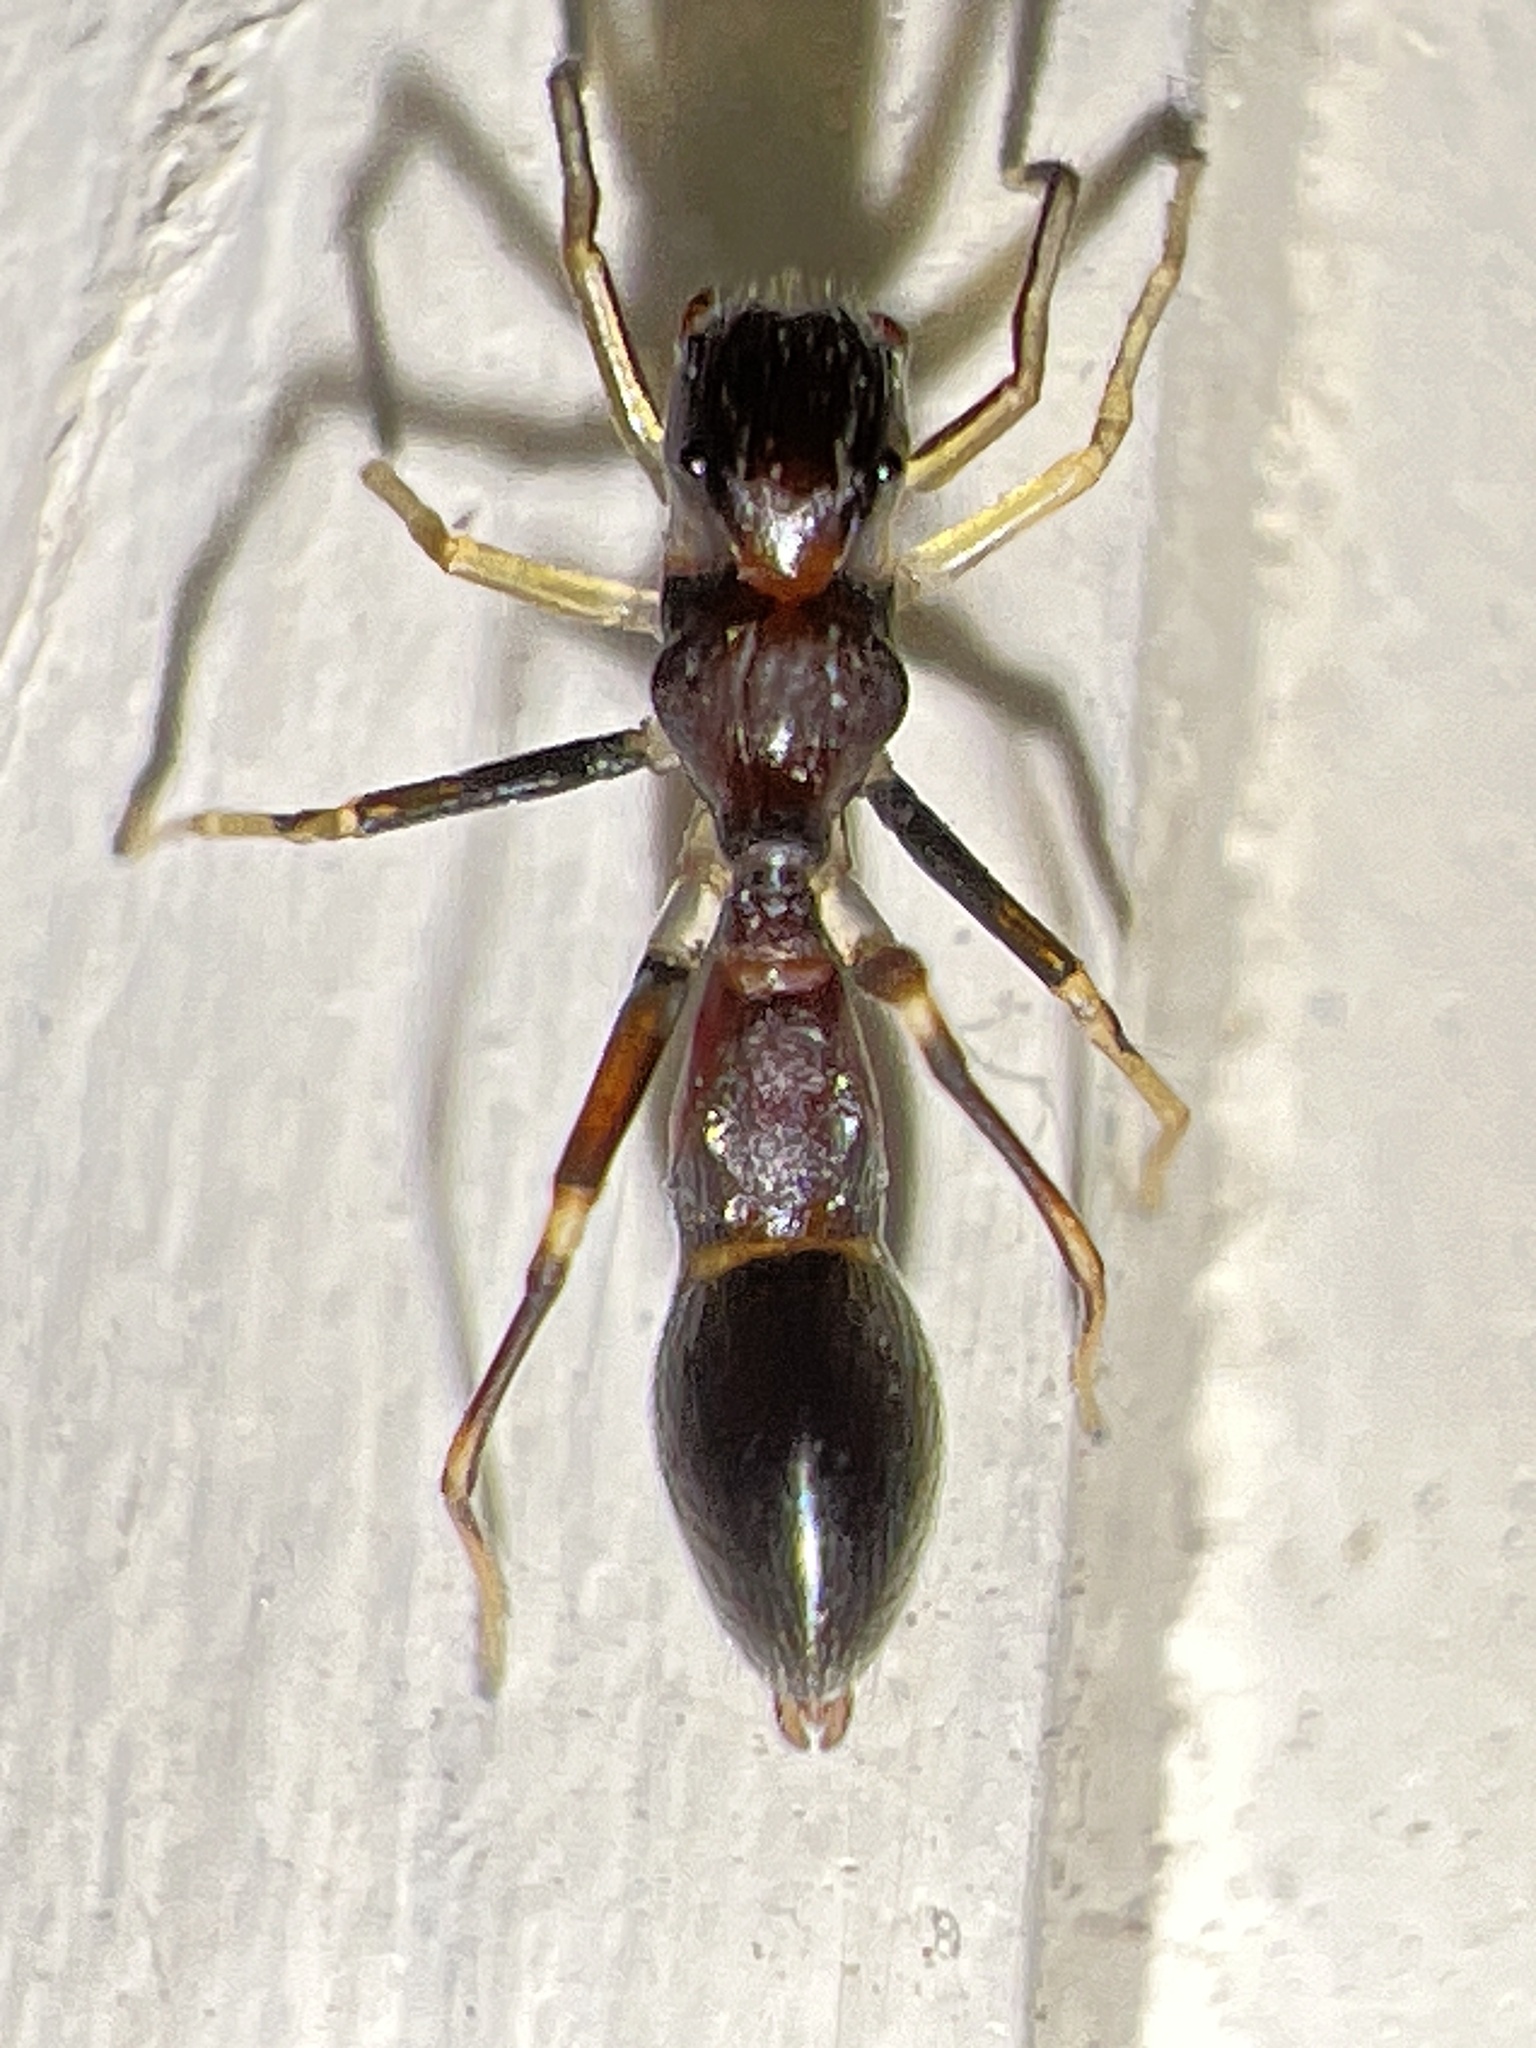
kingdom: Animalia
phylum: Arthropoda
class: Arachnida
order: Araneae
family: Salticidae
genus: Synemosyna
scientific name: Synemosyna formica
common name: Slender ant-mimic jumping spider
